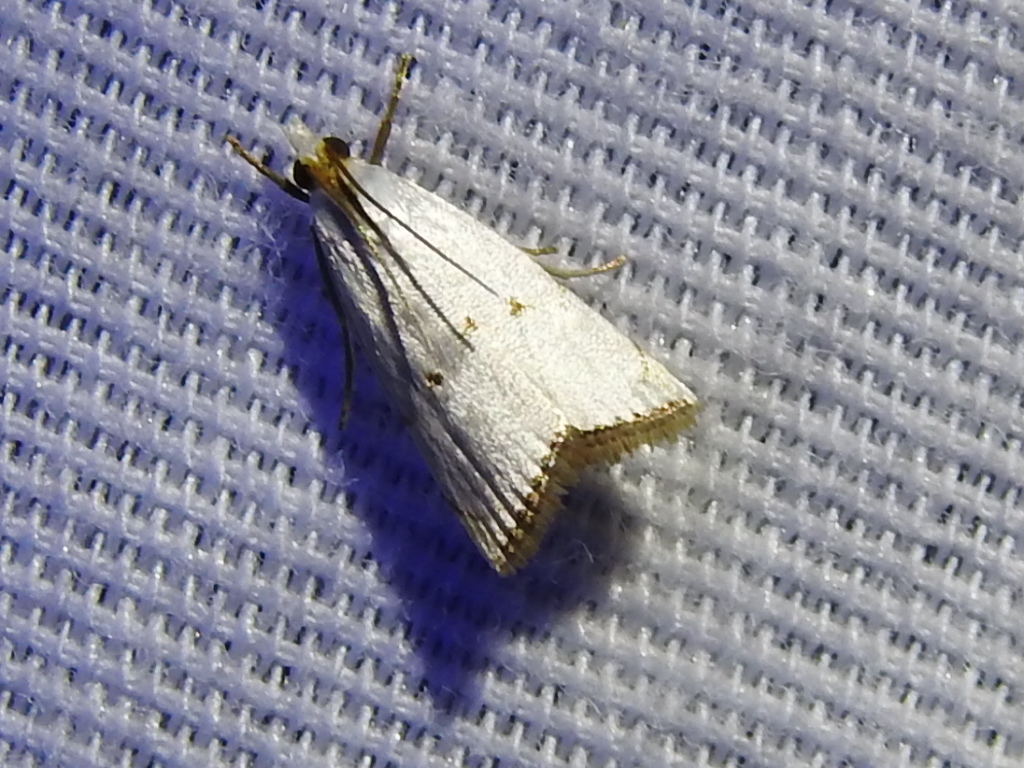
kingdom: Animalia
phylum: Arthropoda
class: Insecta
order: Lepidoptera
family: Crambidae
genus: Argyria
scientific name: Argyria pusillalis
